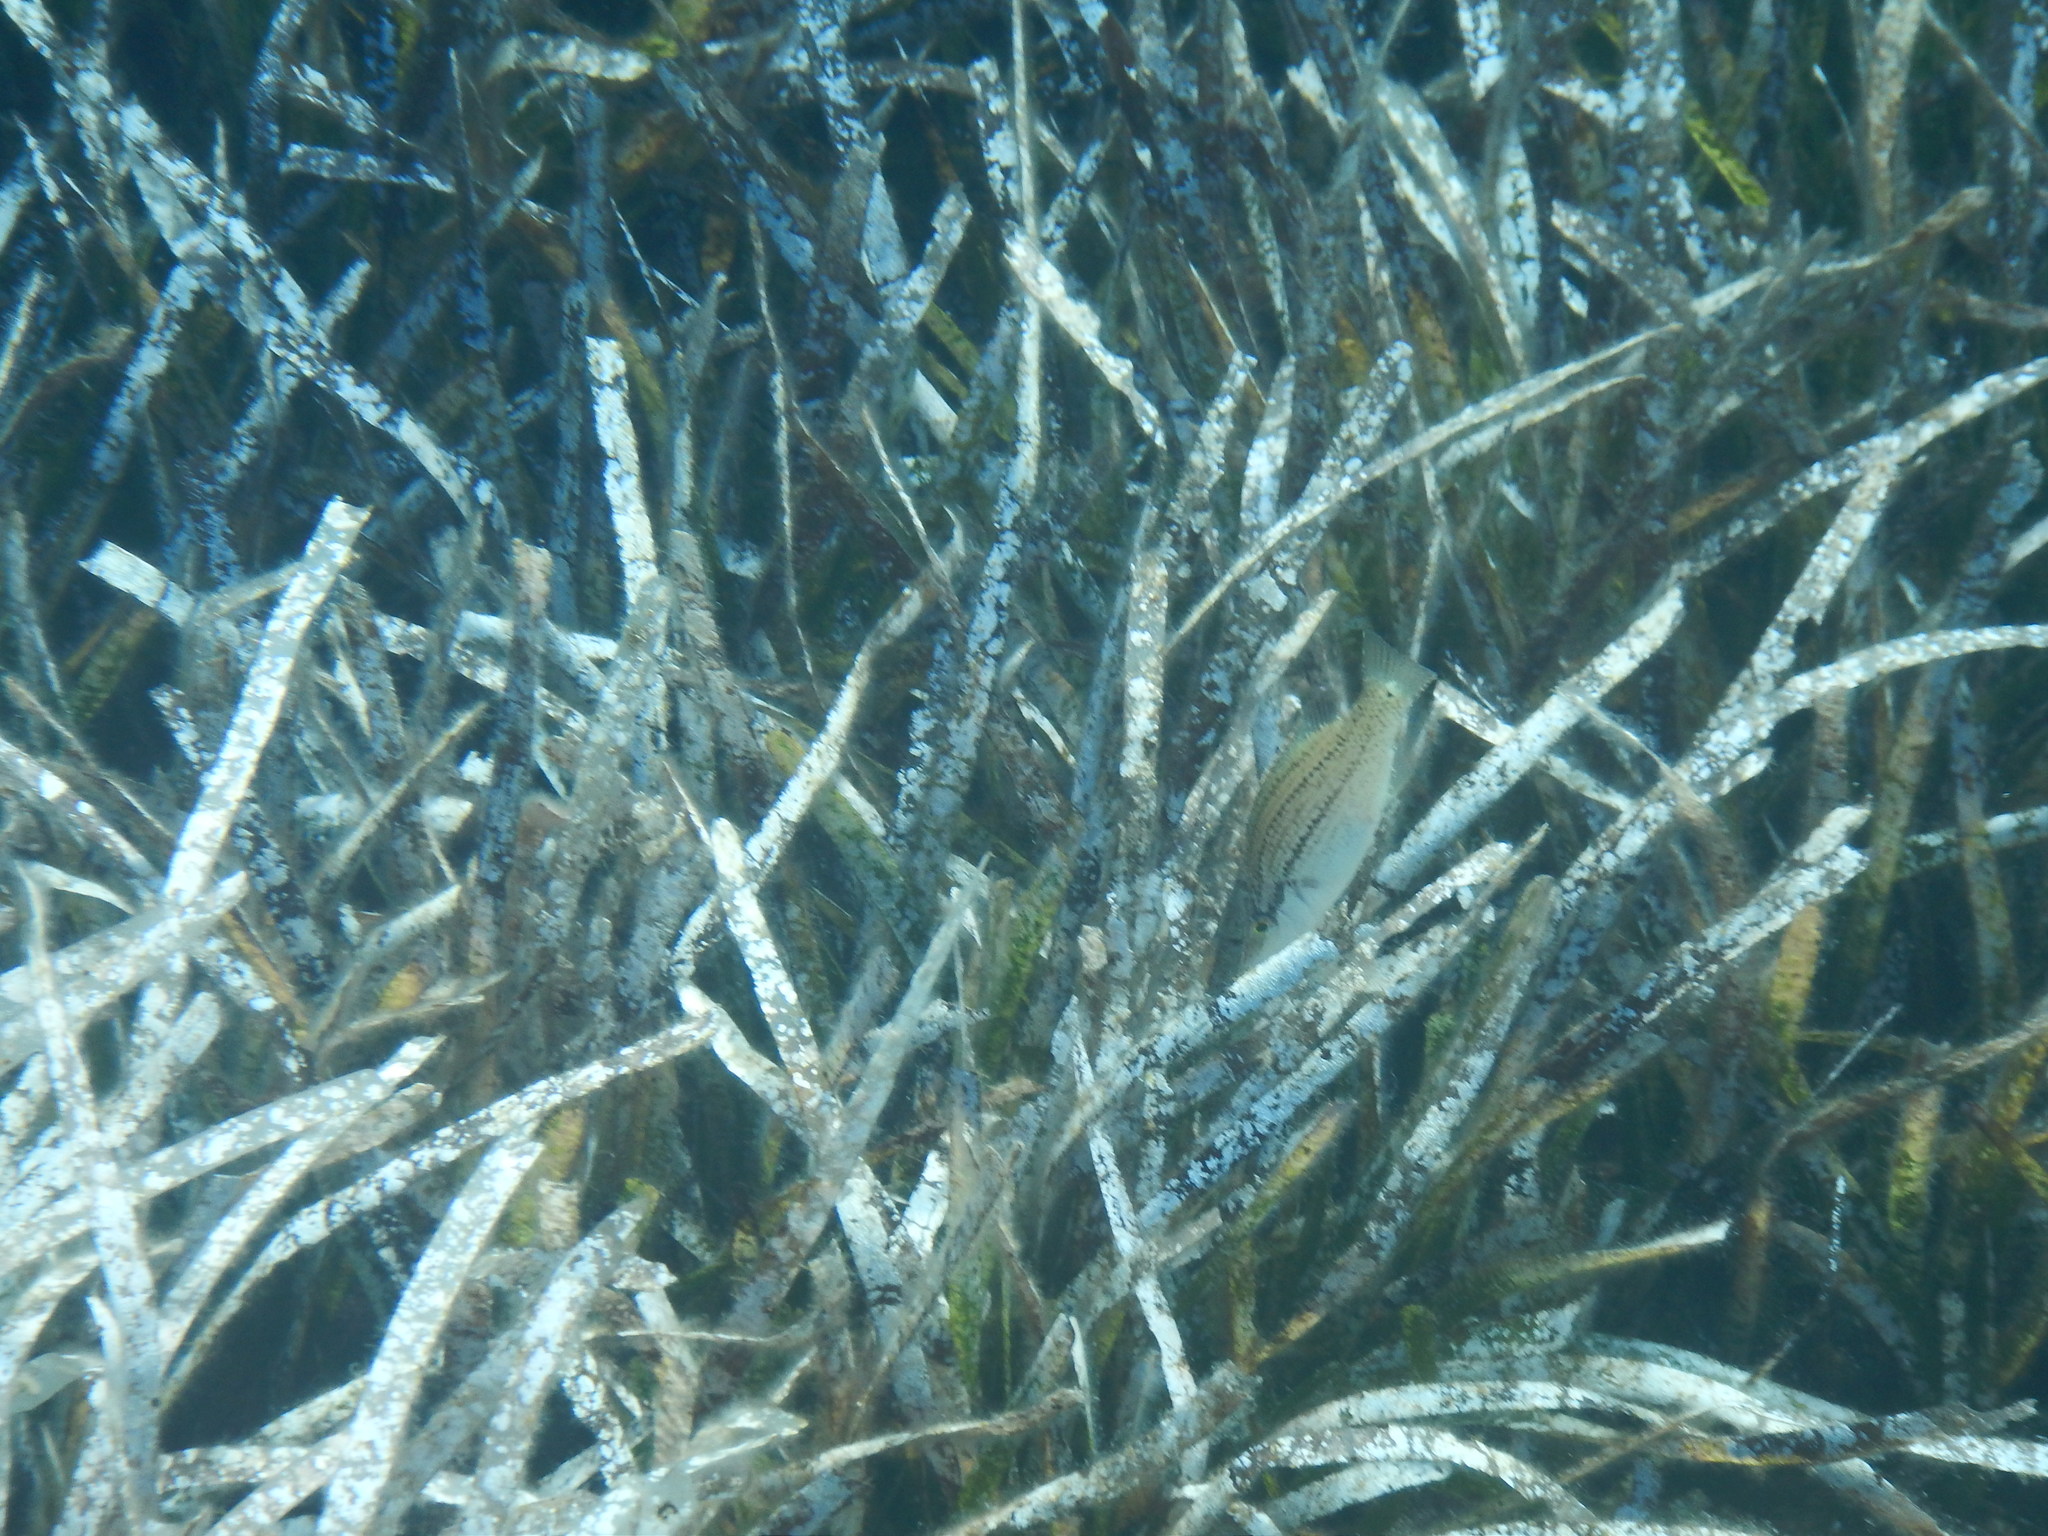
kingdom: Animalia
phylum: Chordata
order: Perciformes
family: Labridae
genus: Symphodus
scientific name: Symphodus rostratus
